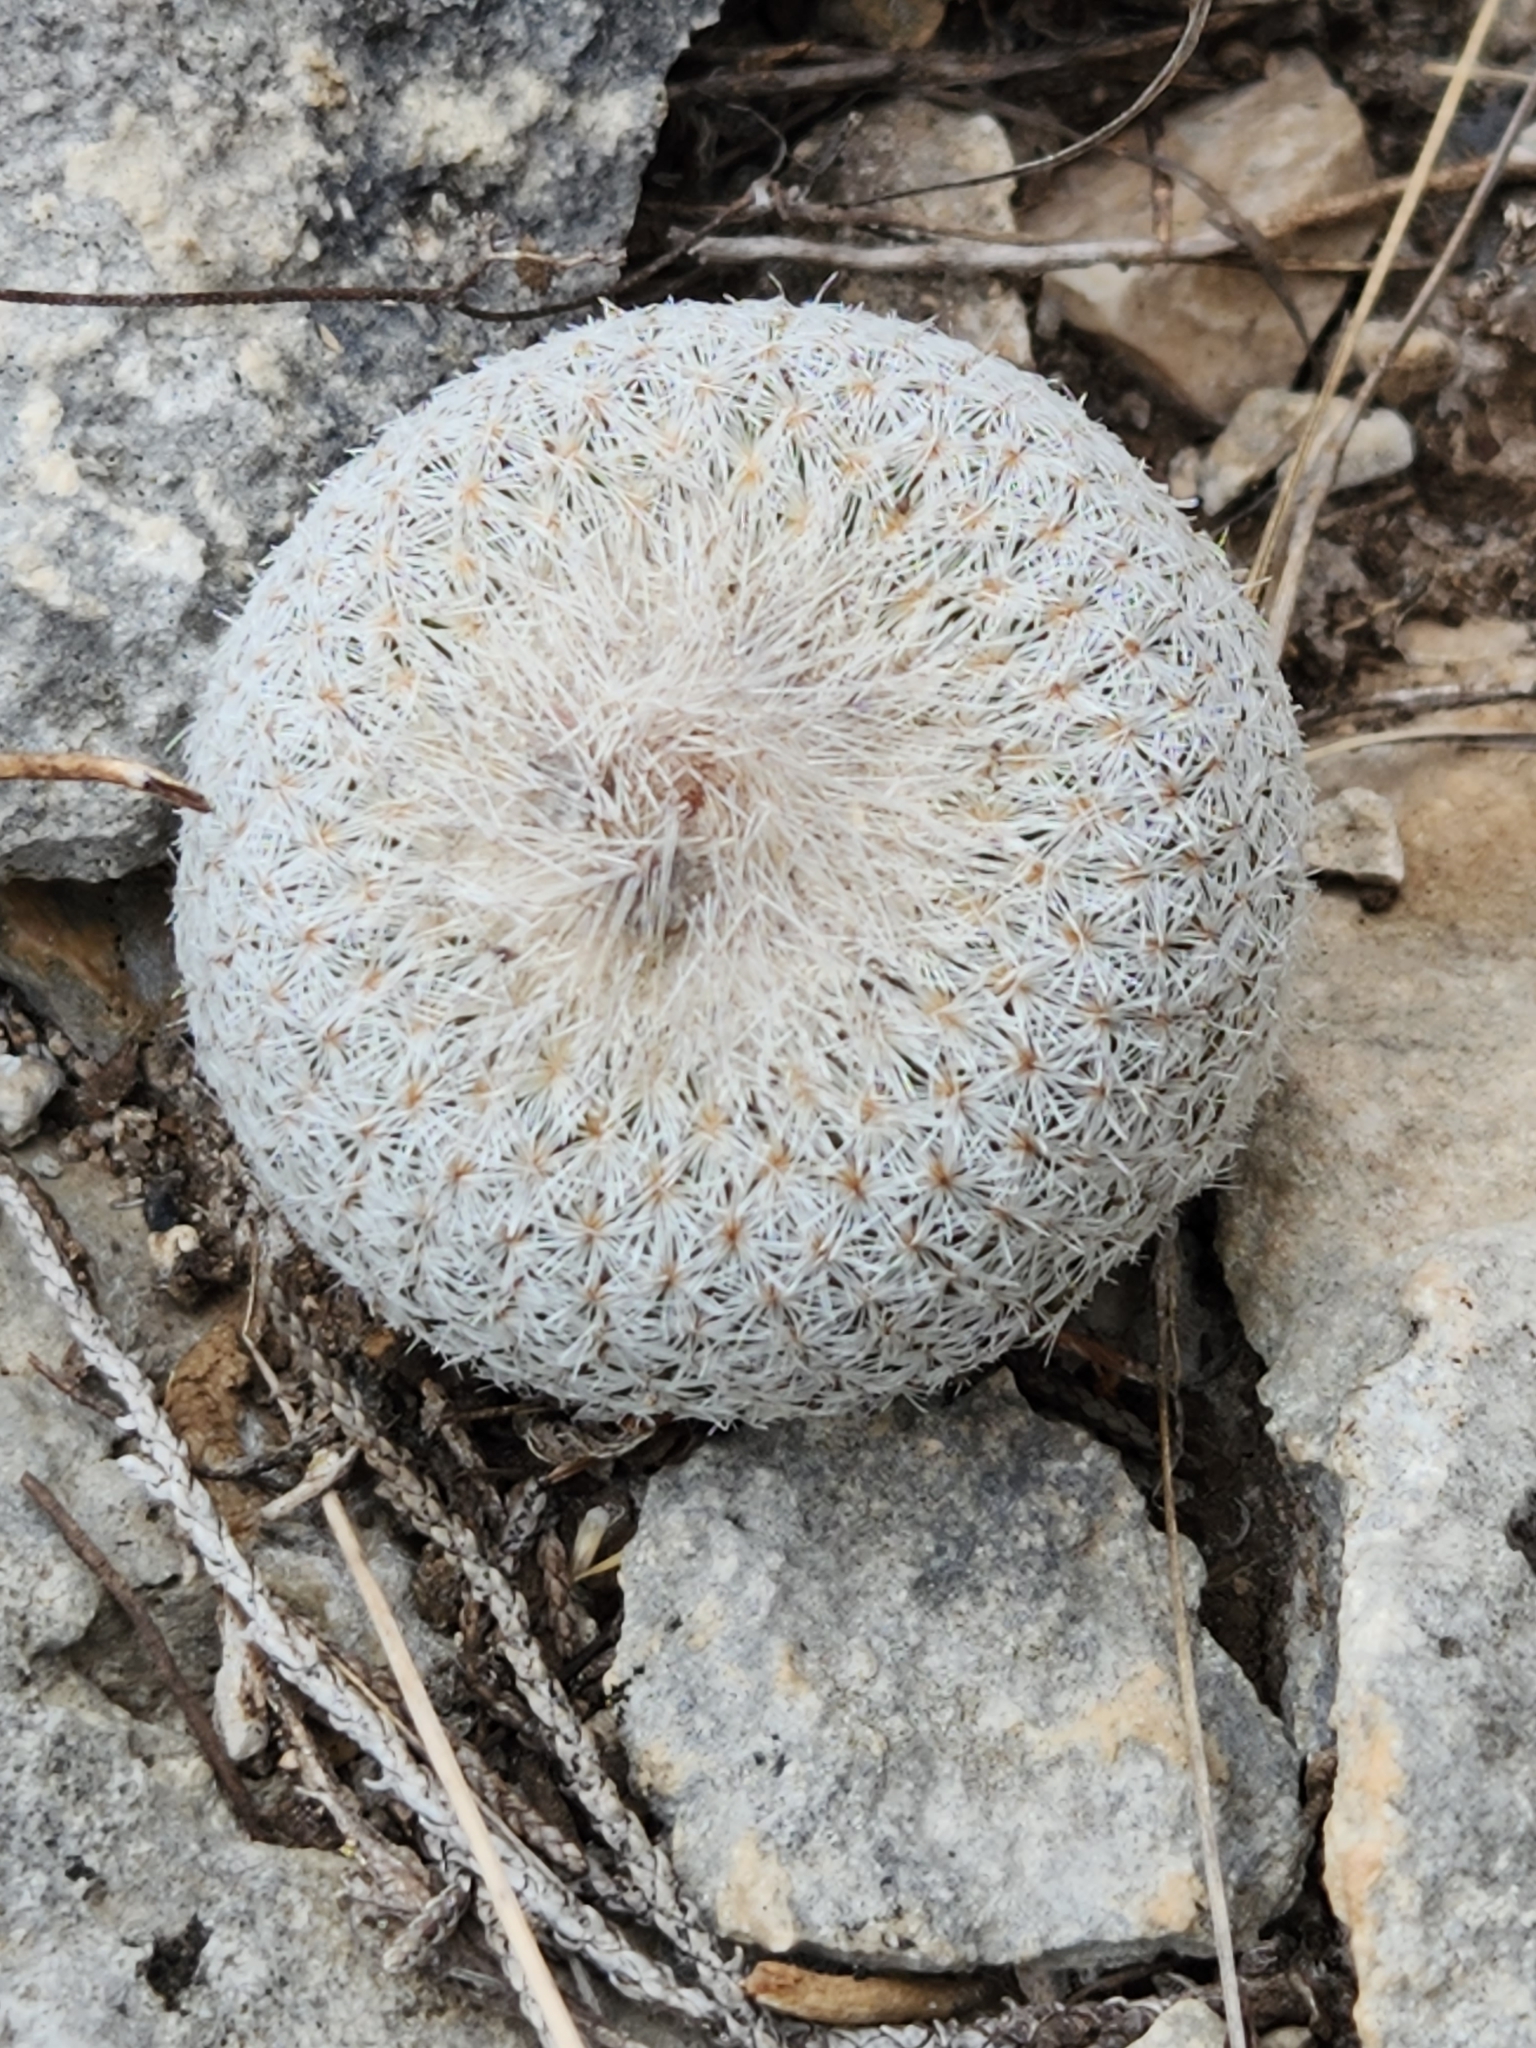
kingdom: Plantae
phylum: Tracheophyta
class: Magnoliopsida
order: Caryophyllales
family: Cactaceae
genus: Epithelantha
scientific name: Epithelantha micromeris
